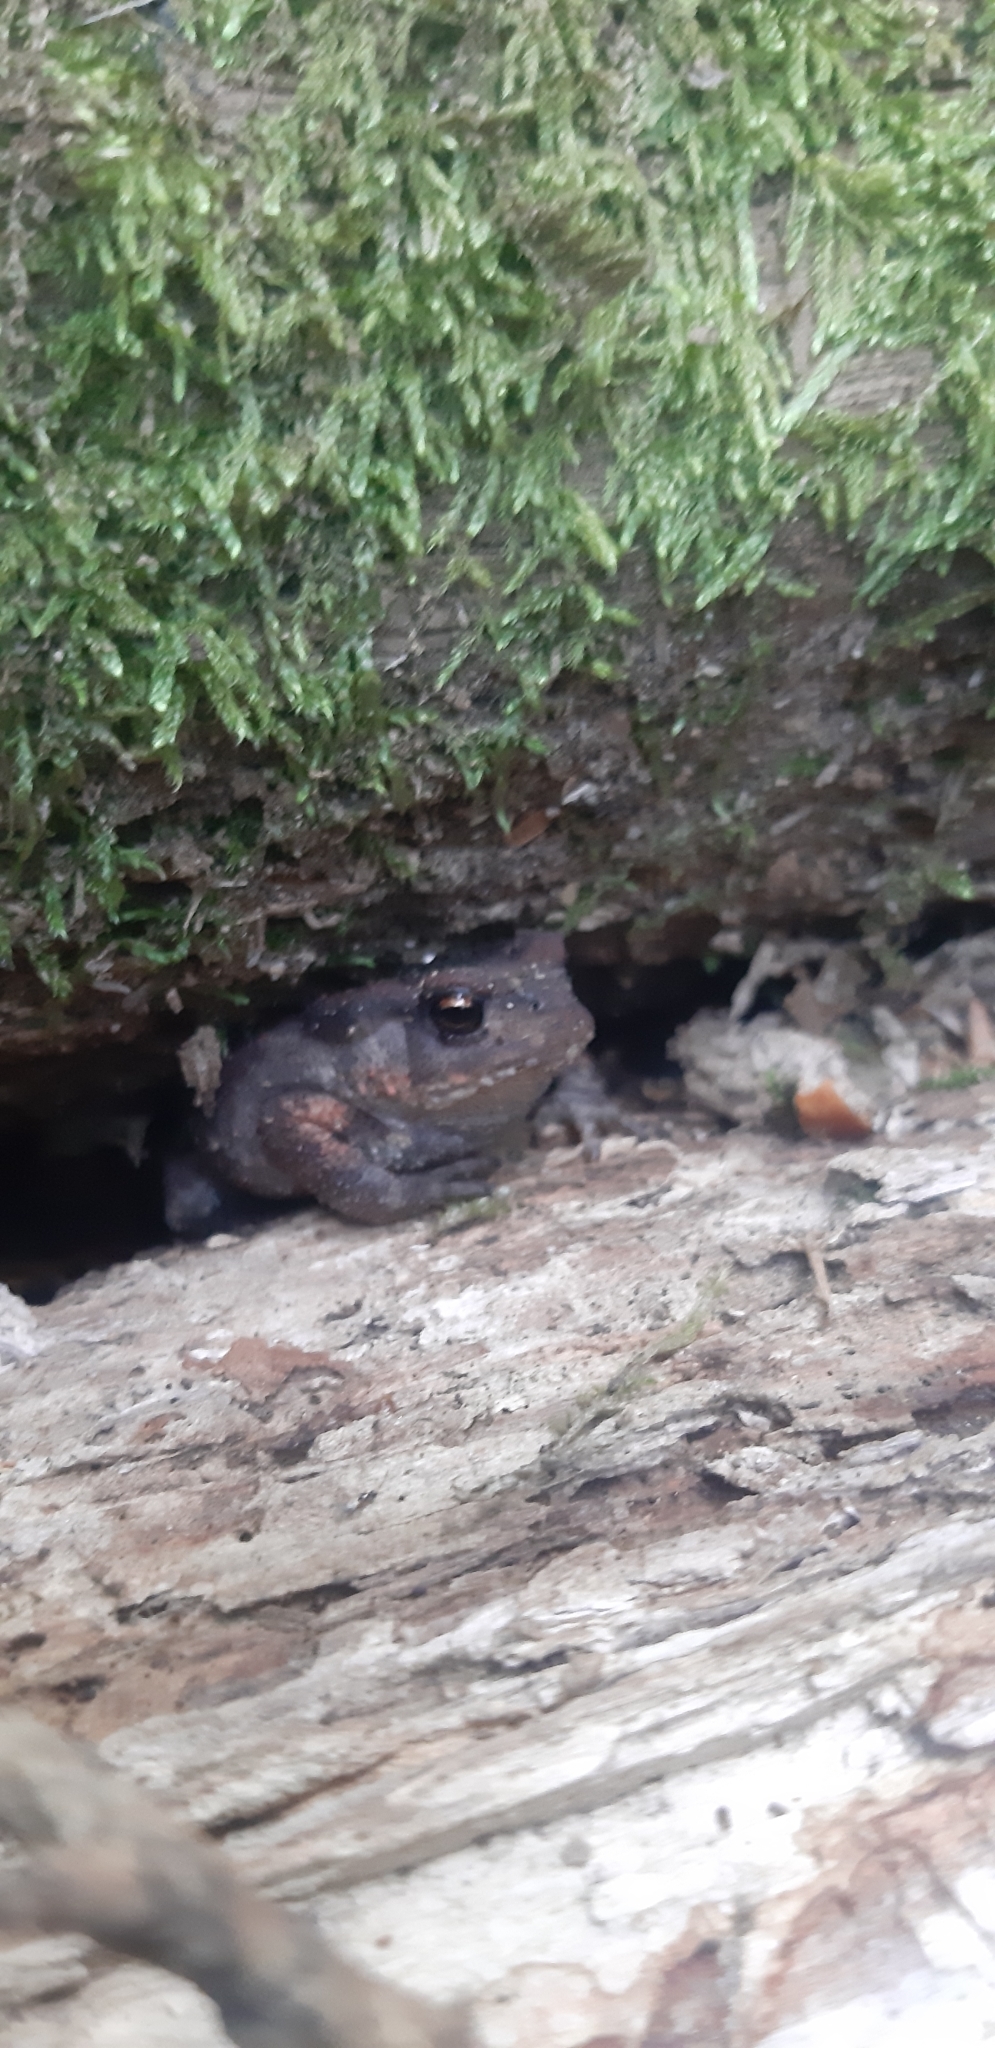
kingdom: Animalia
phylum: Chordata
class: Amphibia
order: Anura
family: Bufonidae
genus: Bufo
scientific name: Bufo bufo
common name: Common toad
